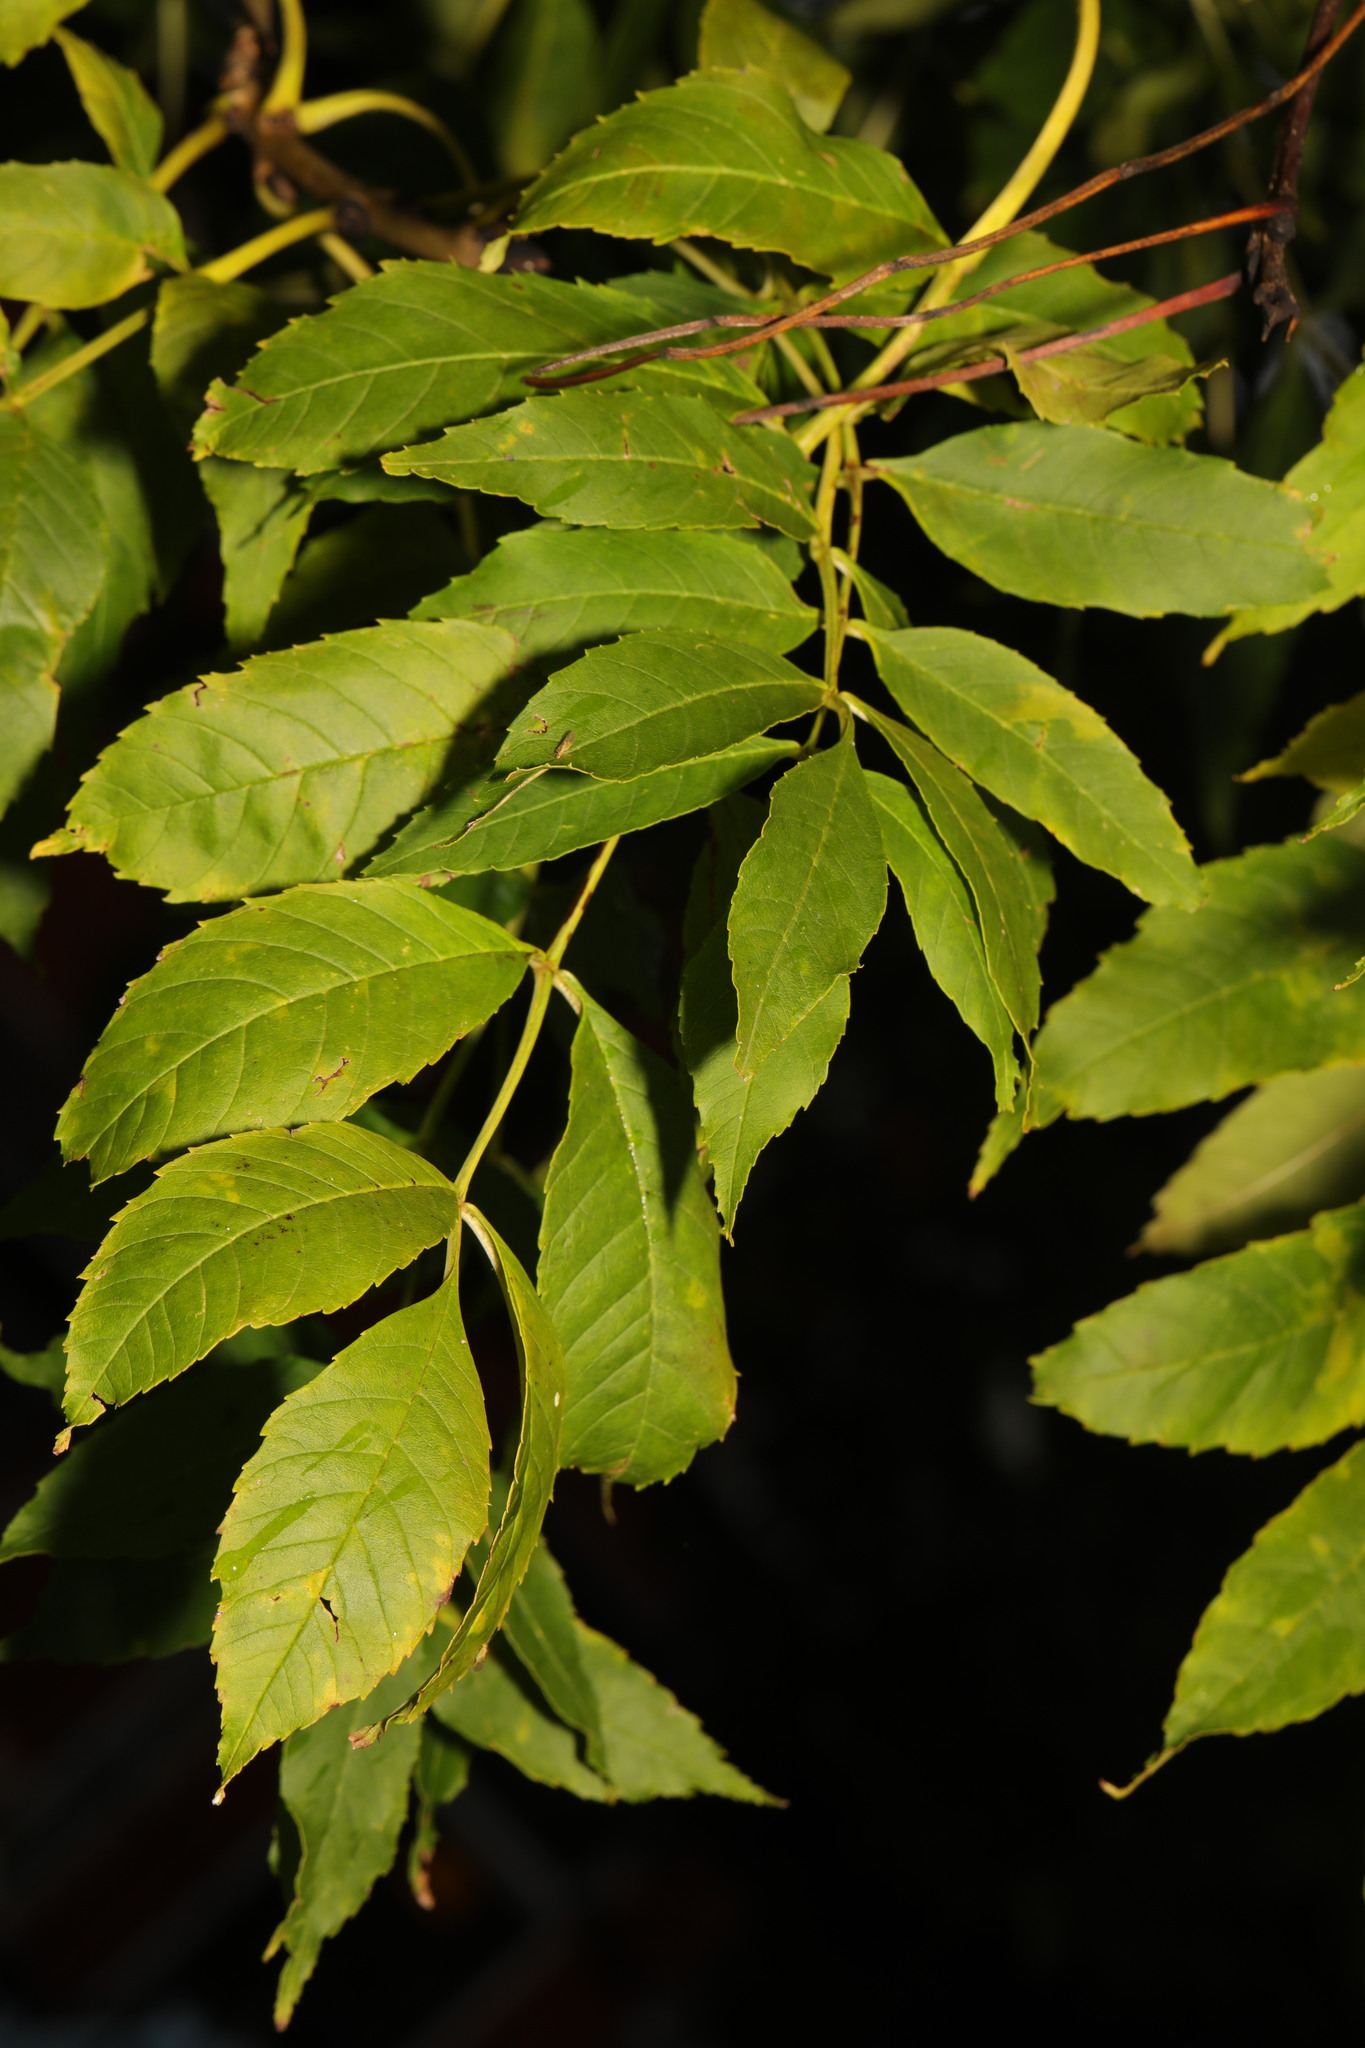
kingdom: Plantae
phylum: Tracheophyta
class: Magnoliopsida
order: Lamiales
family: Oleaceae
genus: Fraxinus
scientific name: Fraxinus excelsior
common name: European ash
